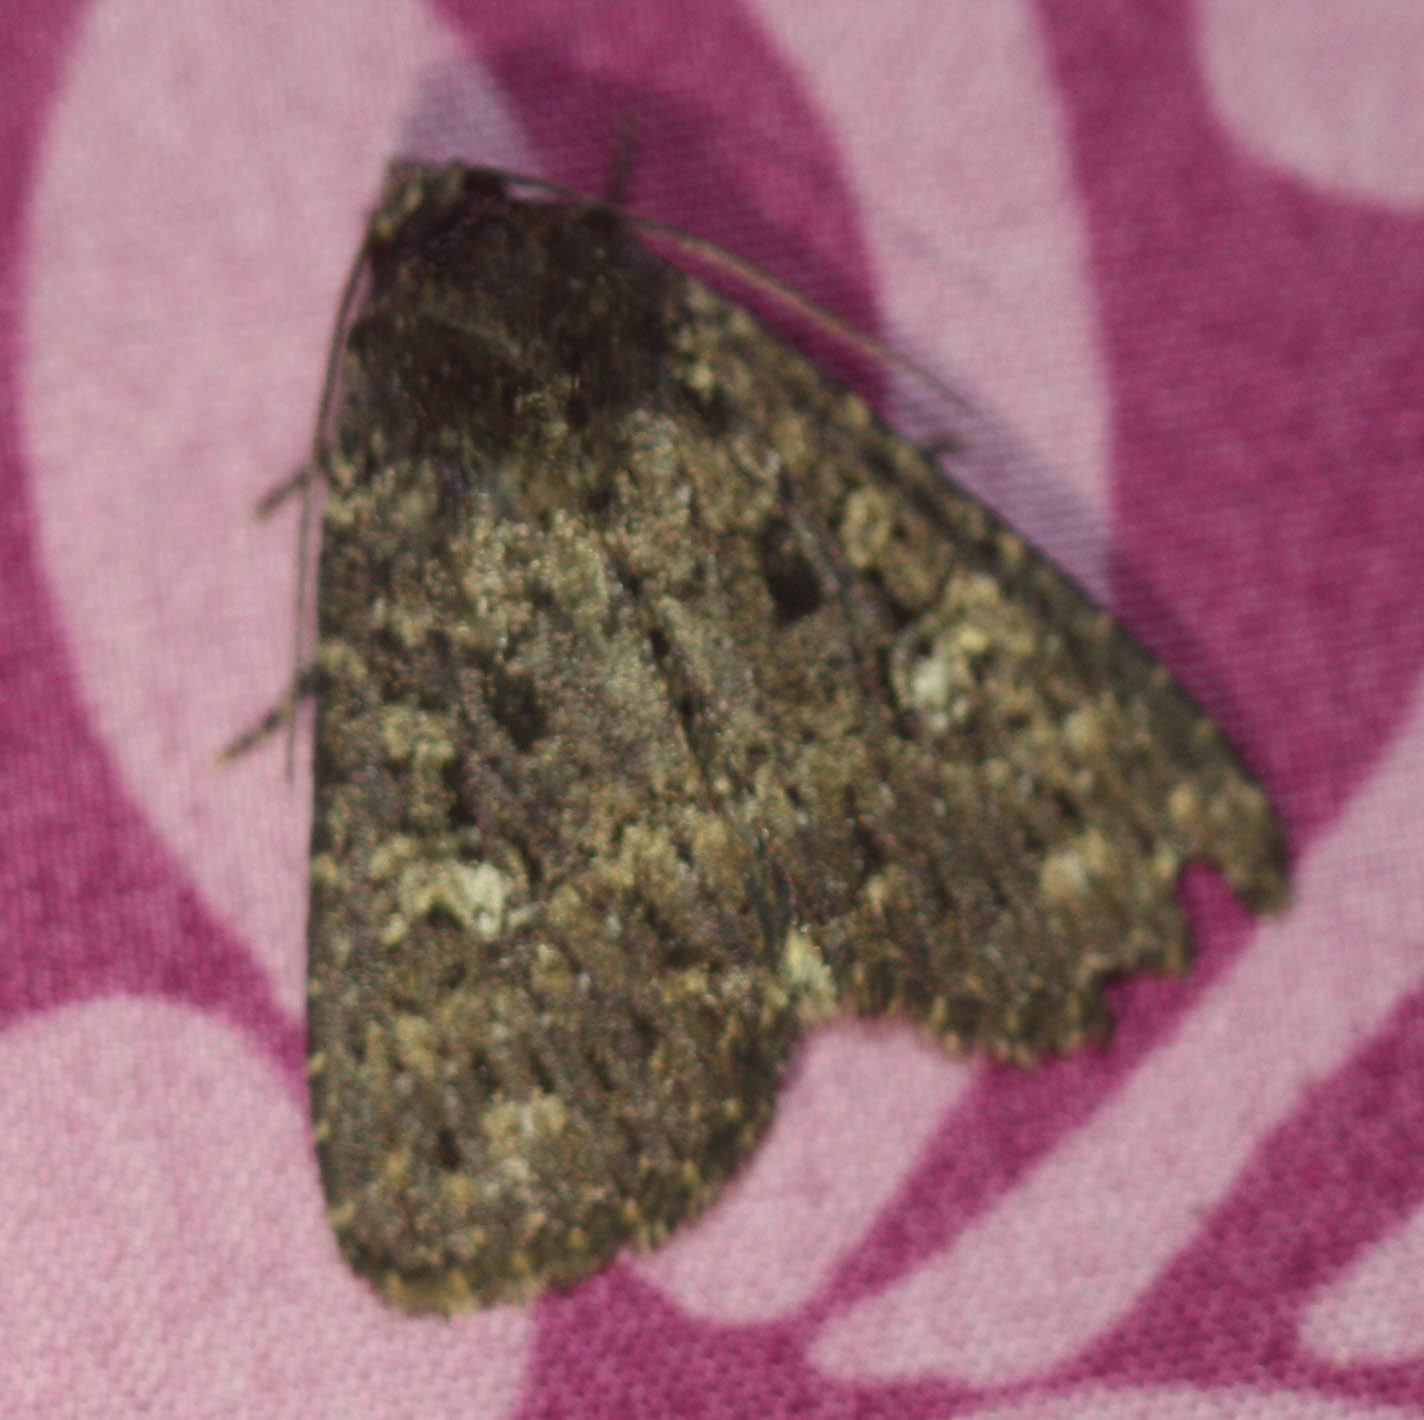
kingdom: Animalia
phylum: Arthropoda
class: Insecta
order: Lepidoptera
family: Noctuidae
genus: Condica
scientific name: Condica vecors
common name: Dusky groundling
